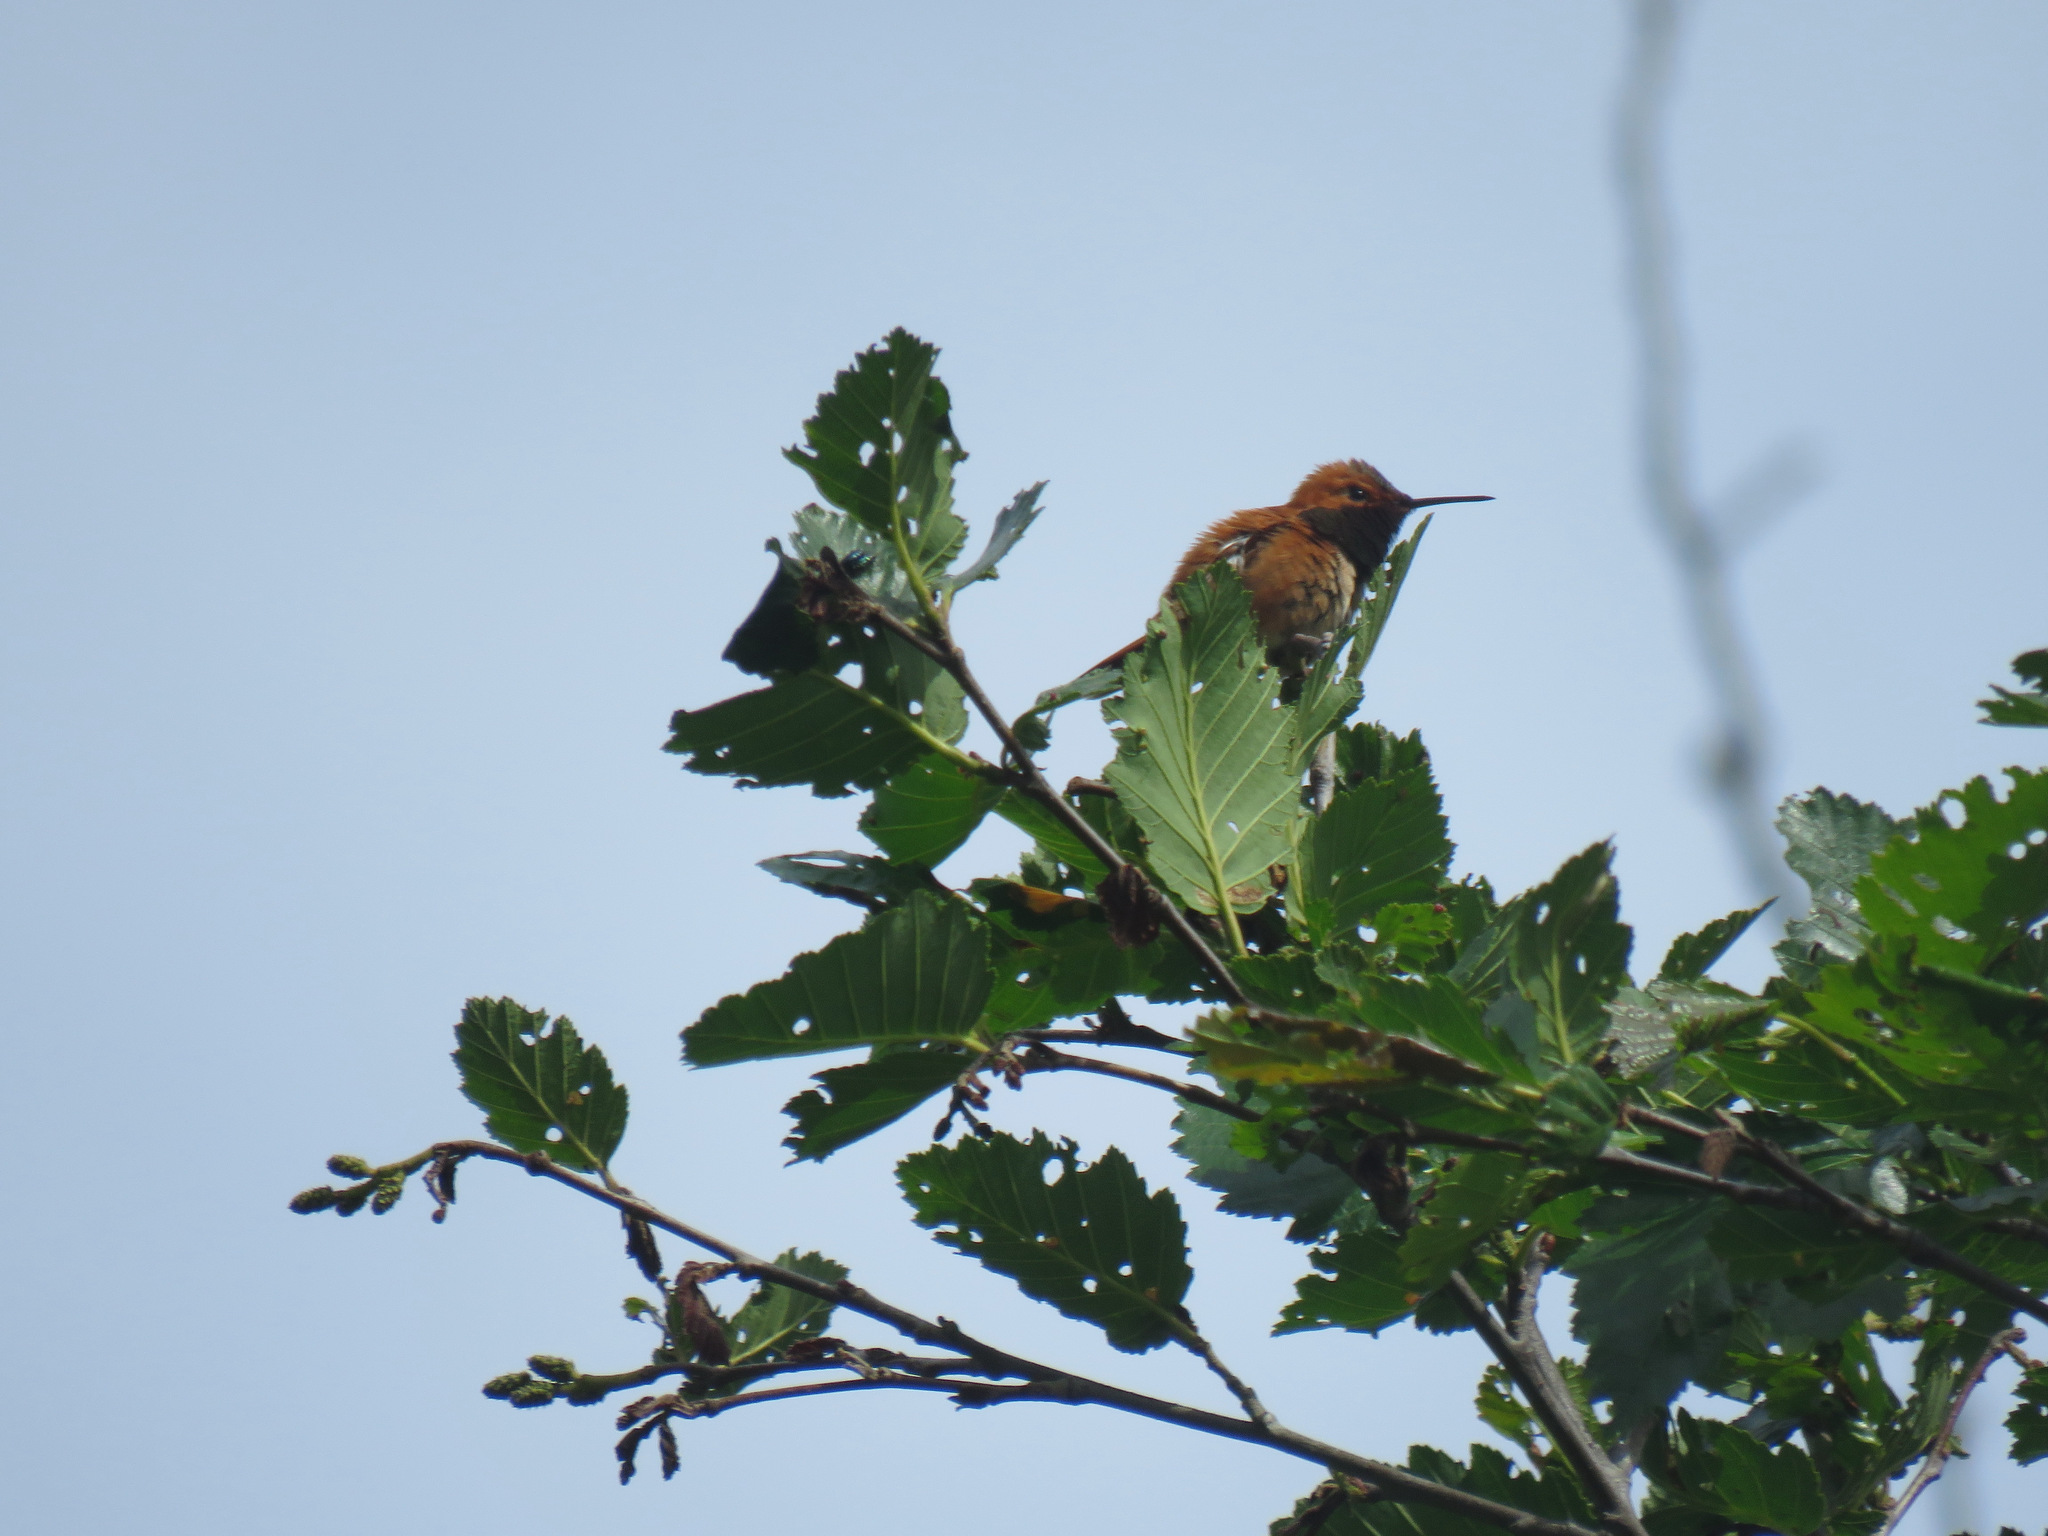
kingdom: Animalia
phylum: Chordata
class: Aves
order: Apodiformes
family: Trochilidae
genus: Selasphorus
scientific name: Selasphorus rufus
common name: Rufous hummingbird
